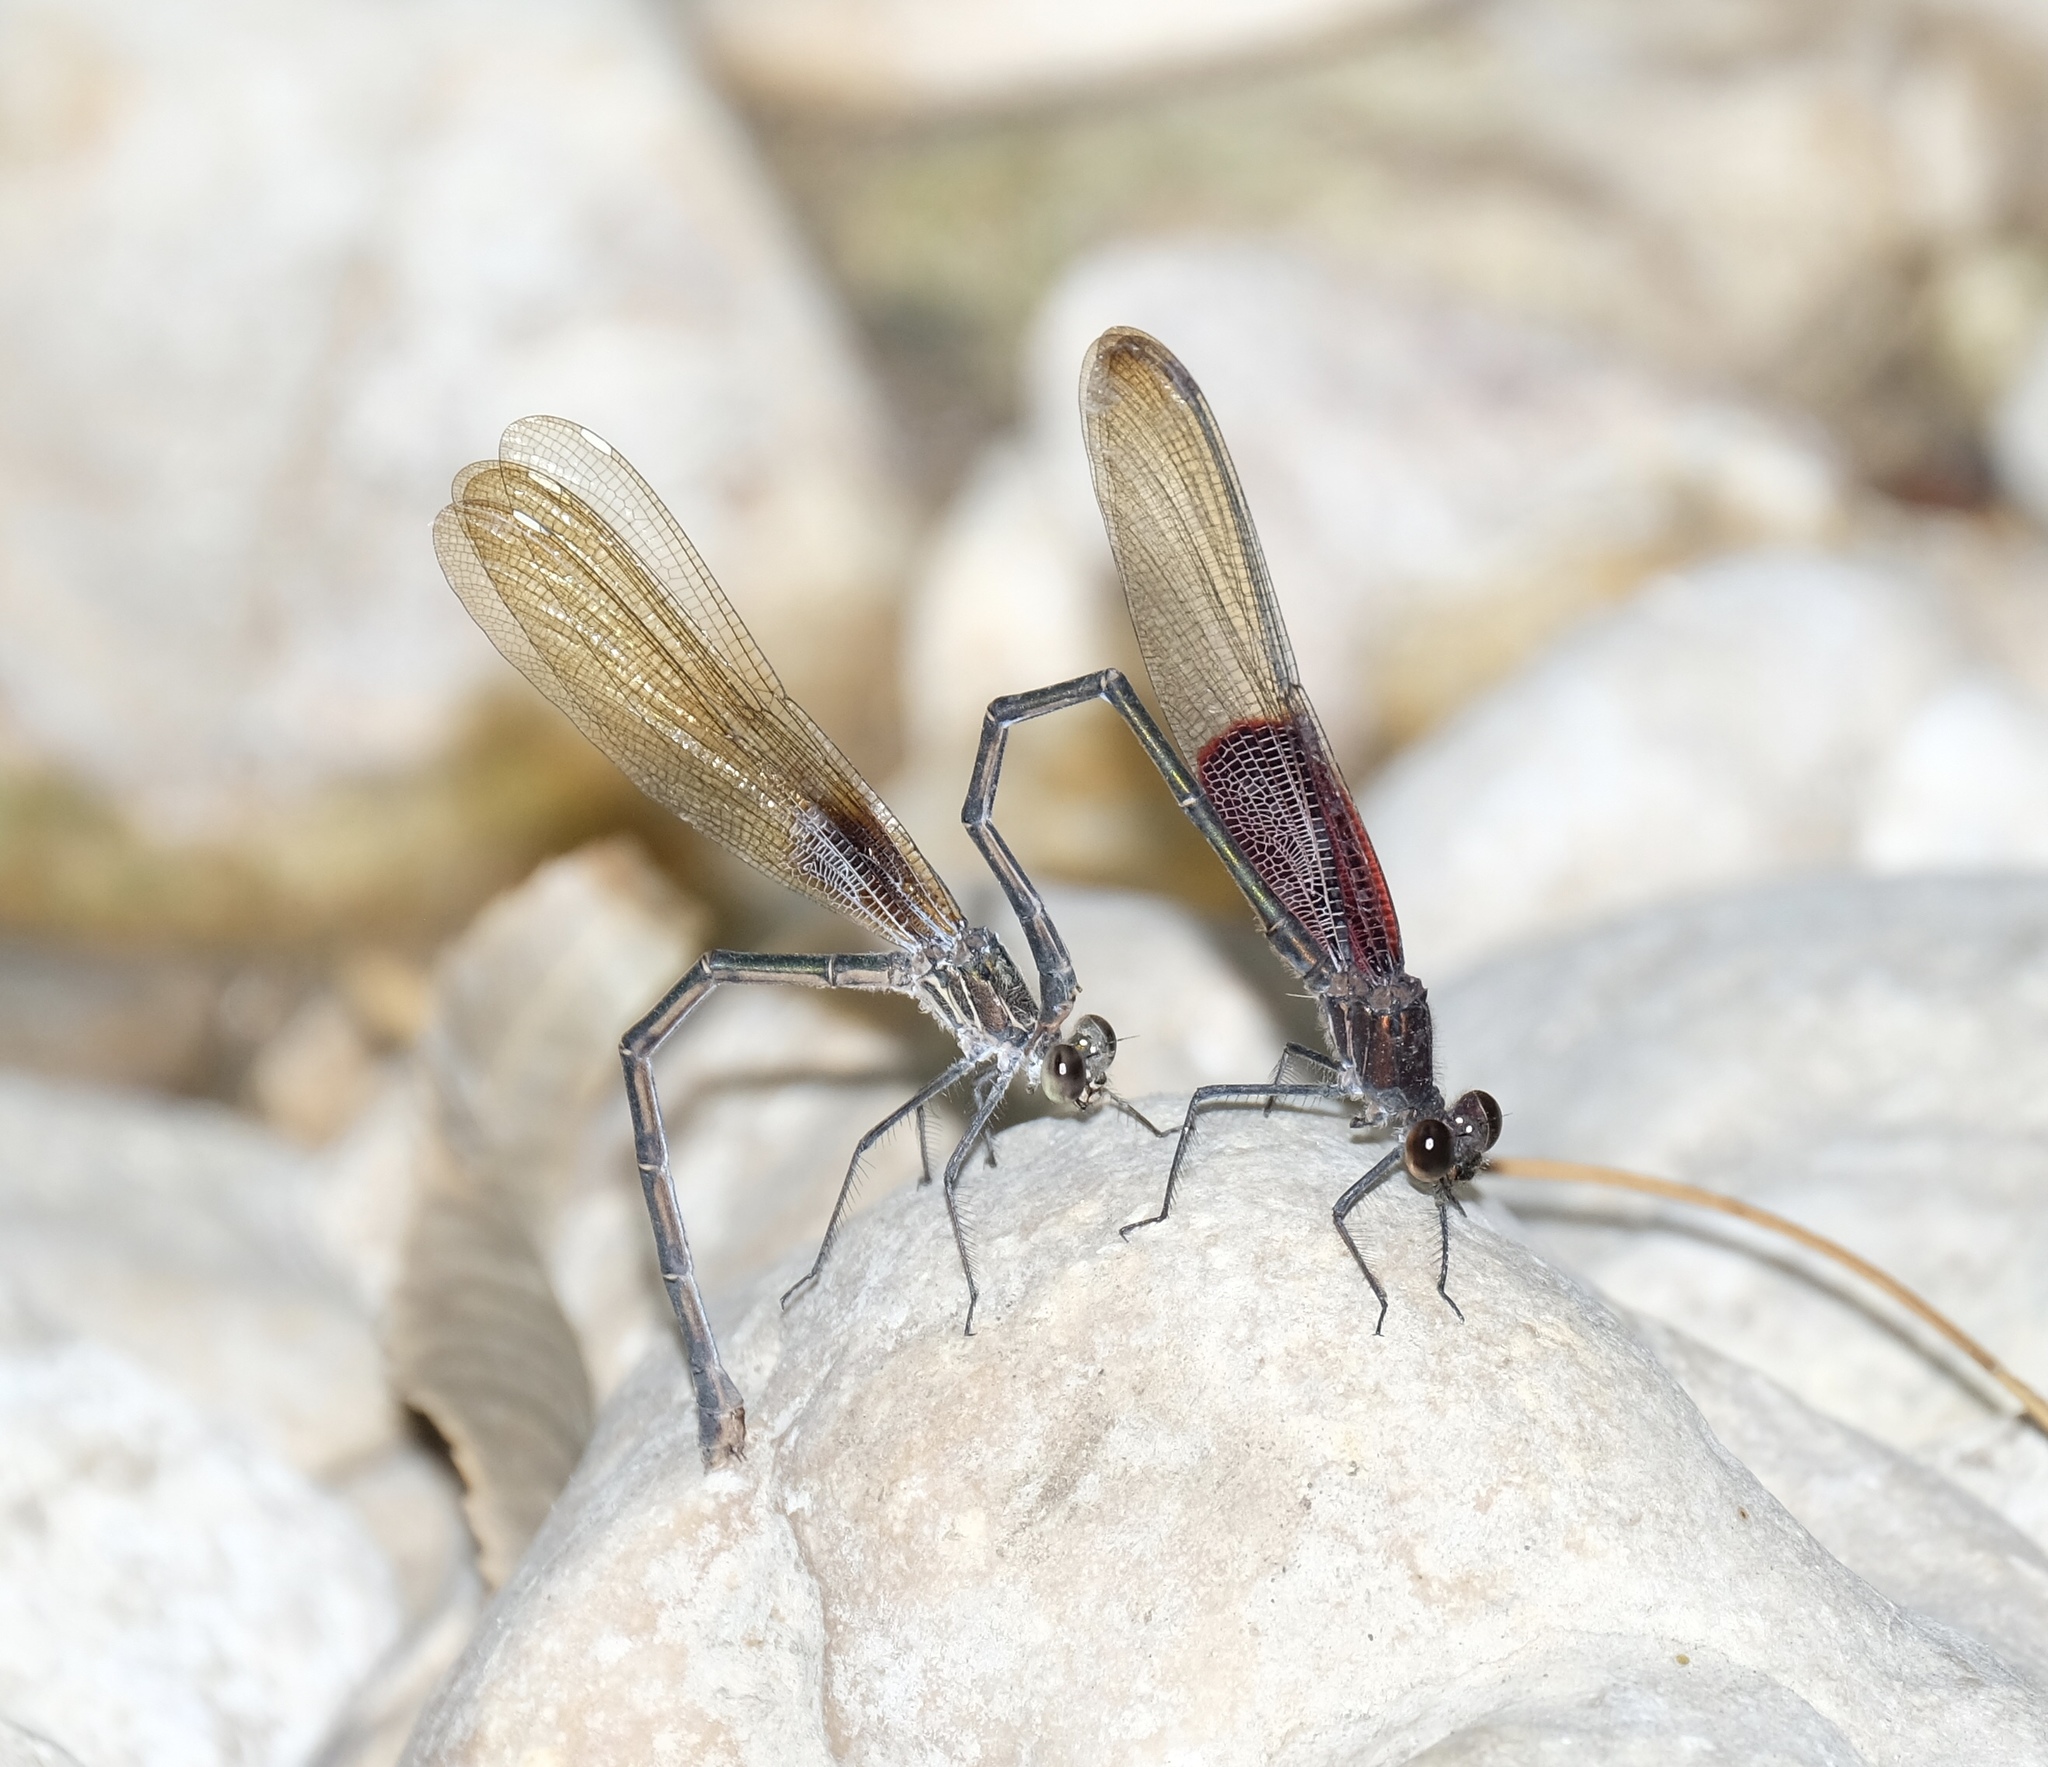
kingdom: Animalia
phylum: Arthropoda
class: Insecta
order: Odonata
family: Calopterygidae
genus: Hetaerina
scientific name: Hetaerina americana
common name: American rubyspot
